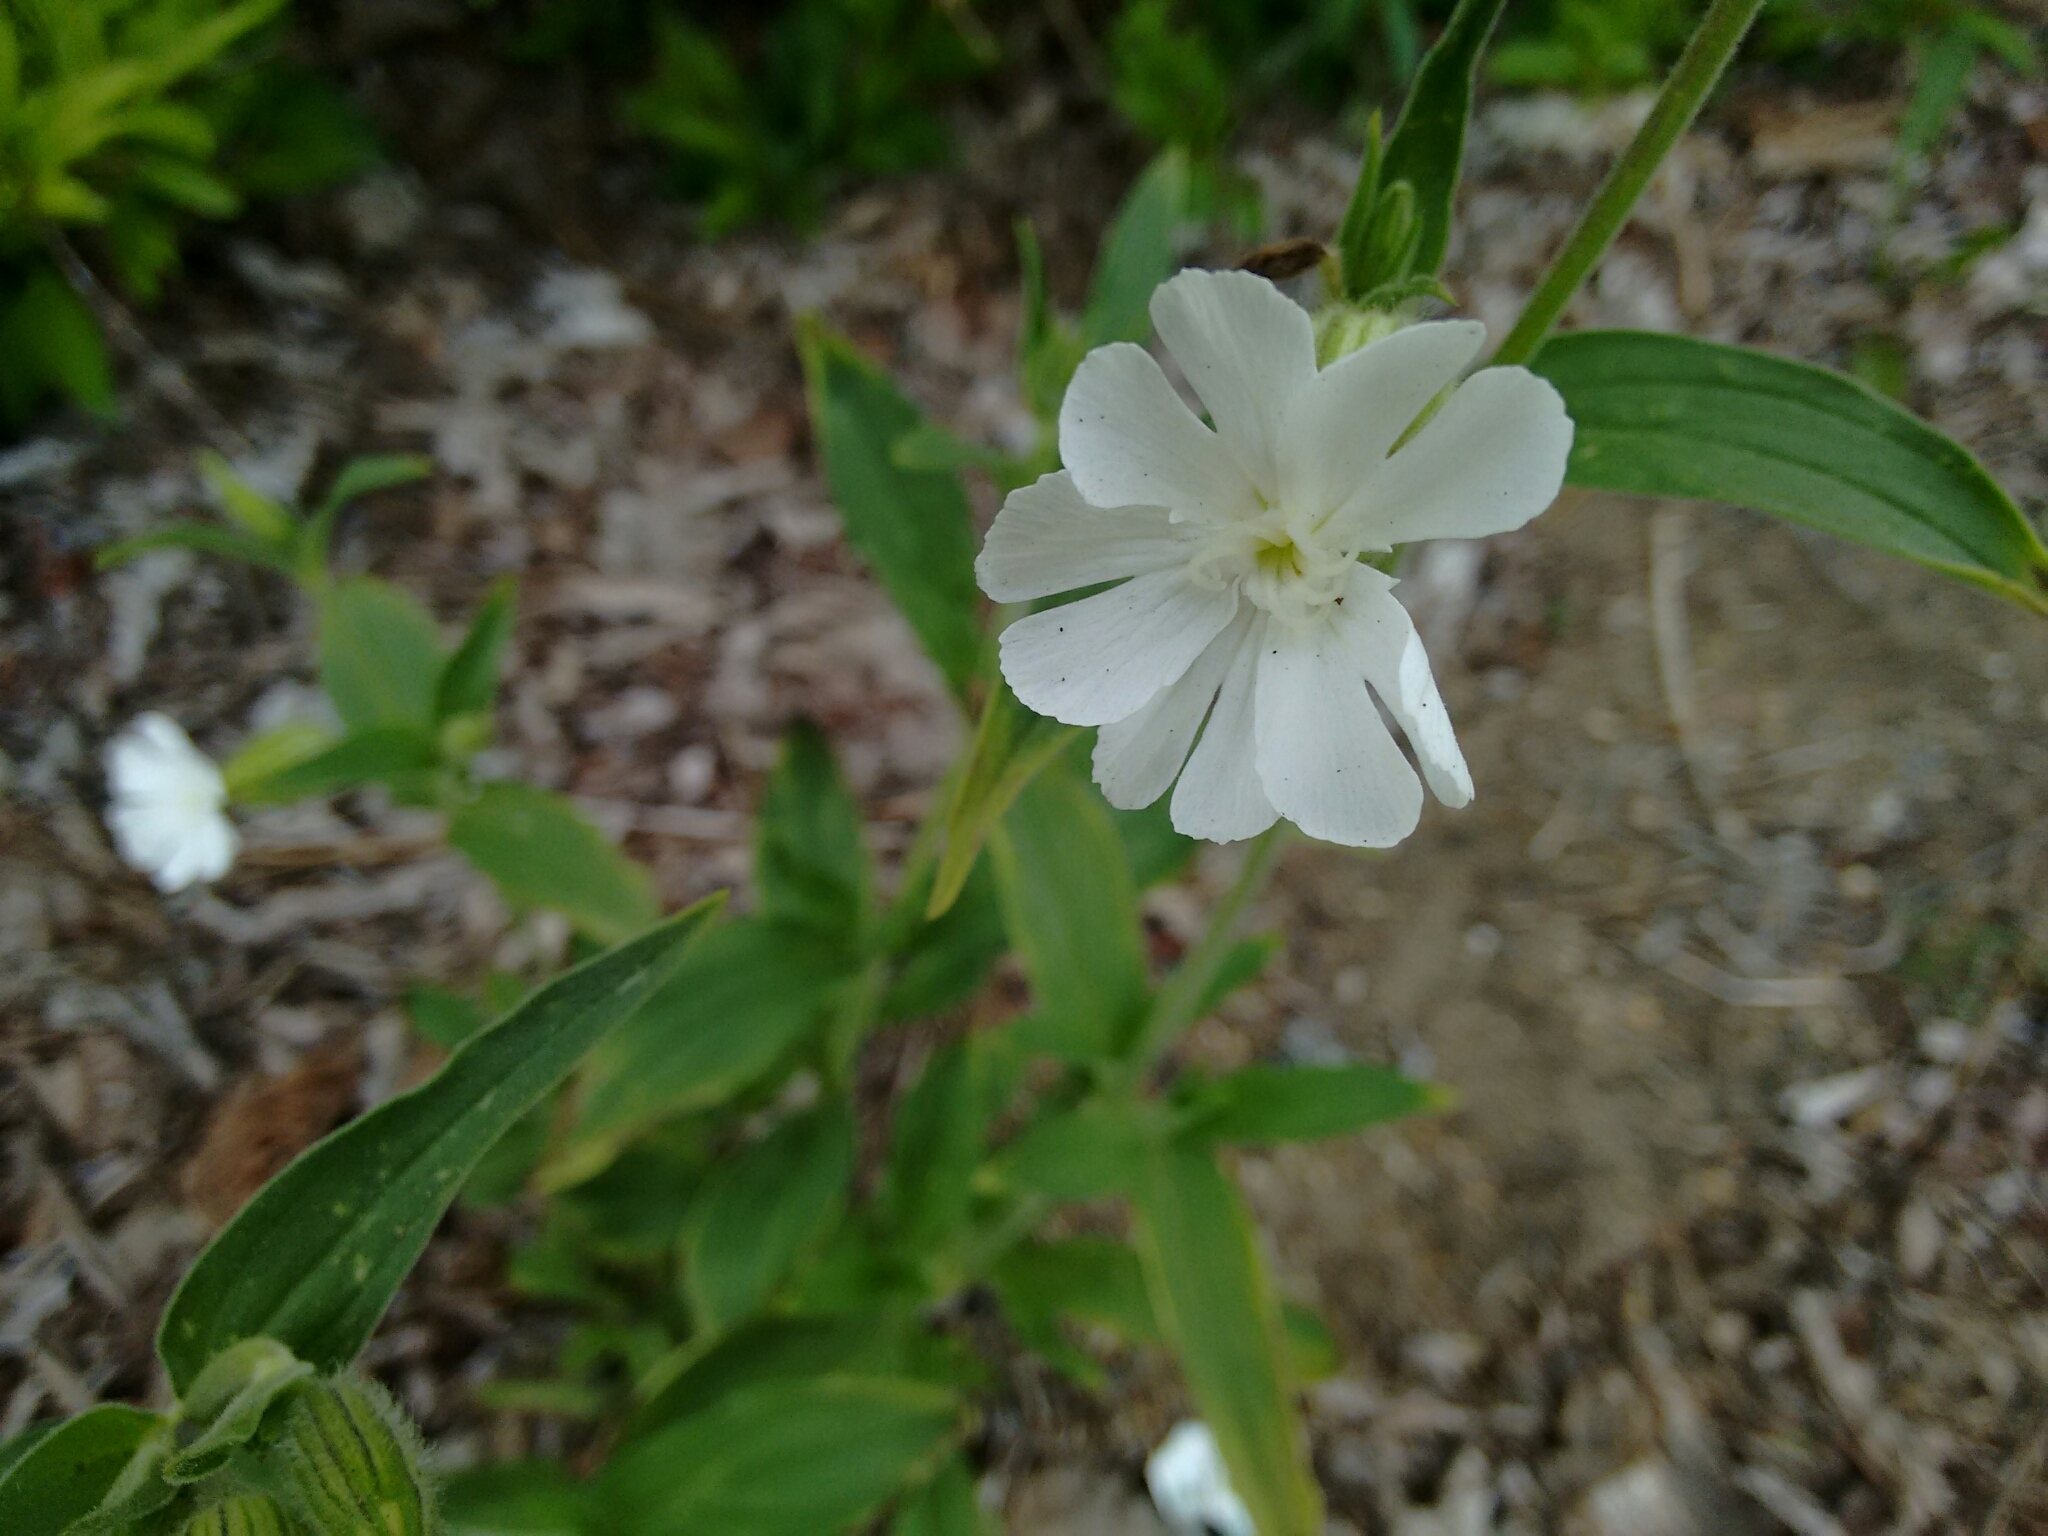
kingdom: Plantae
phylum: Tracheophyta
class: Magnoliopsida
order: Caryophyllales
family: Caryophyllaceae
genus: Silene
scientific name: Silene latifolia
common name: White campion
